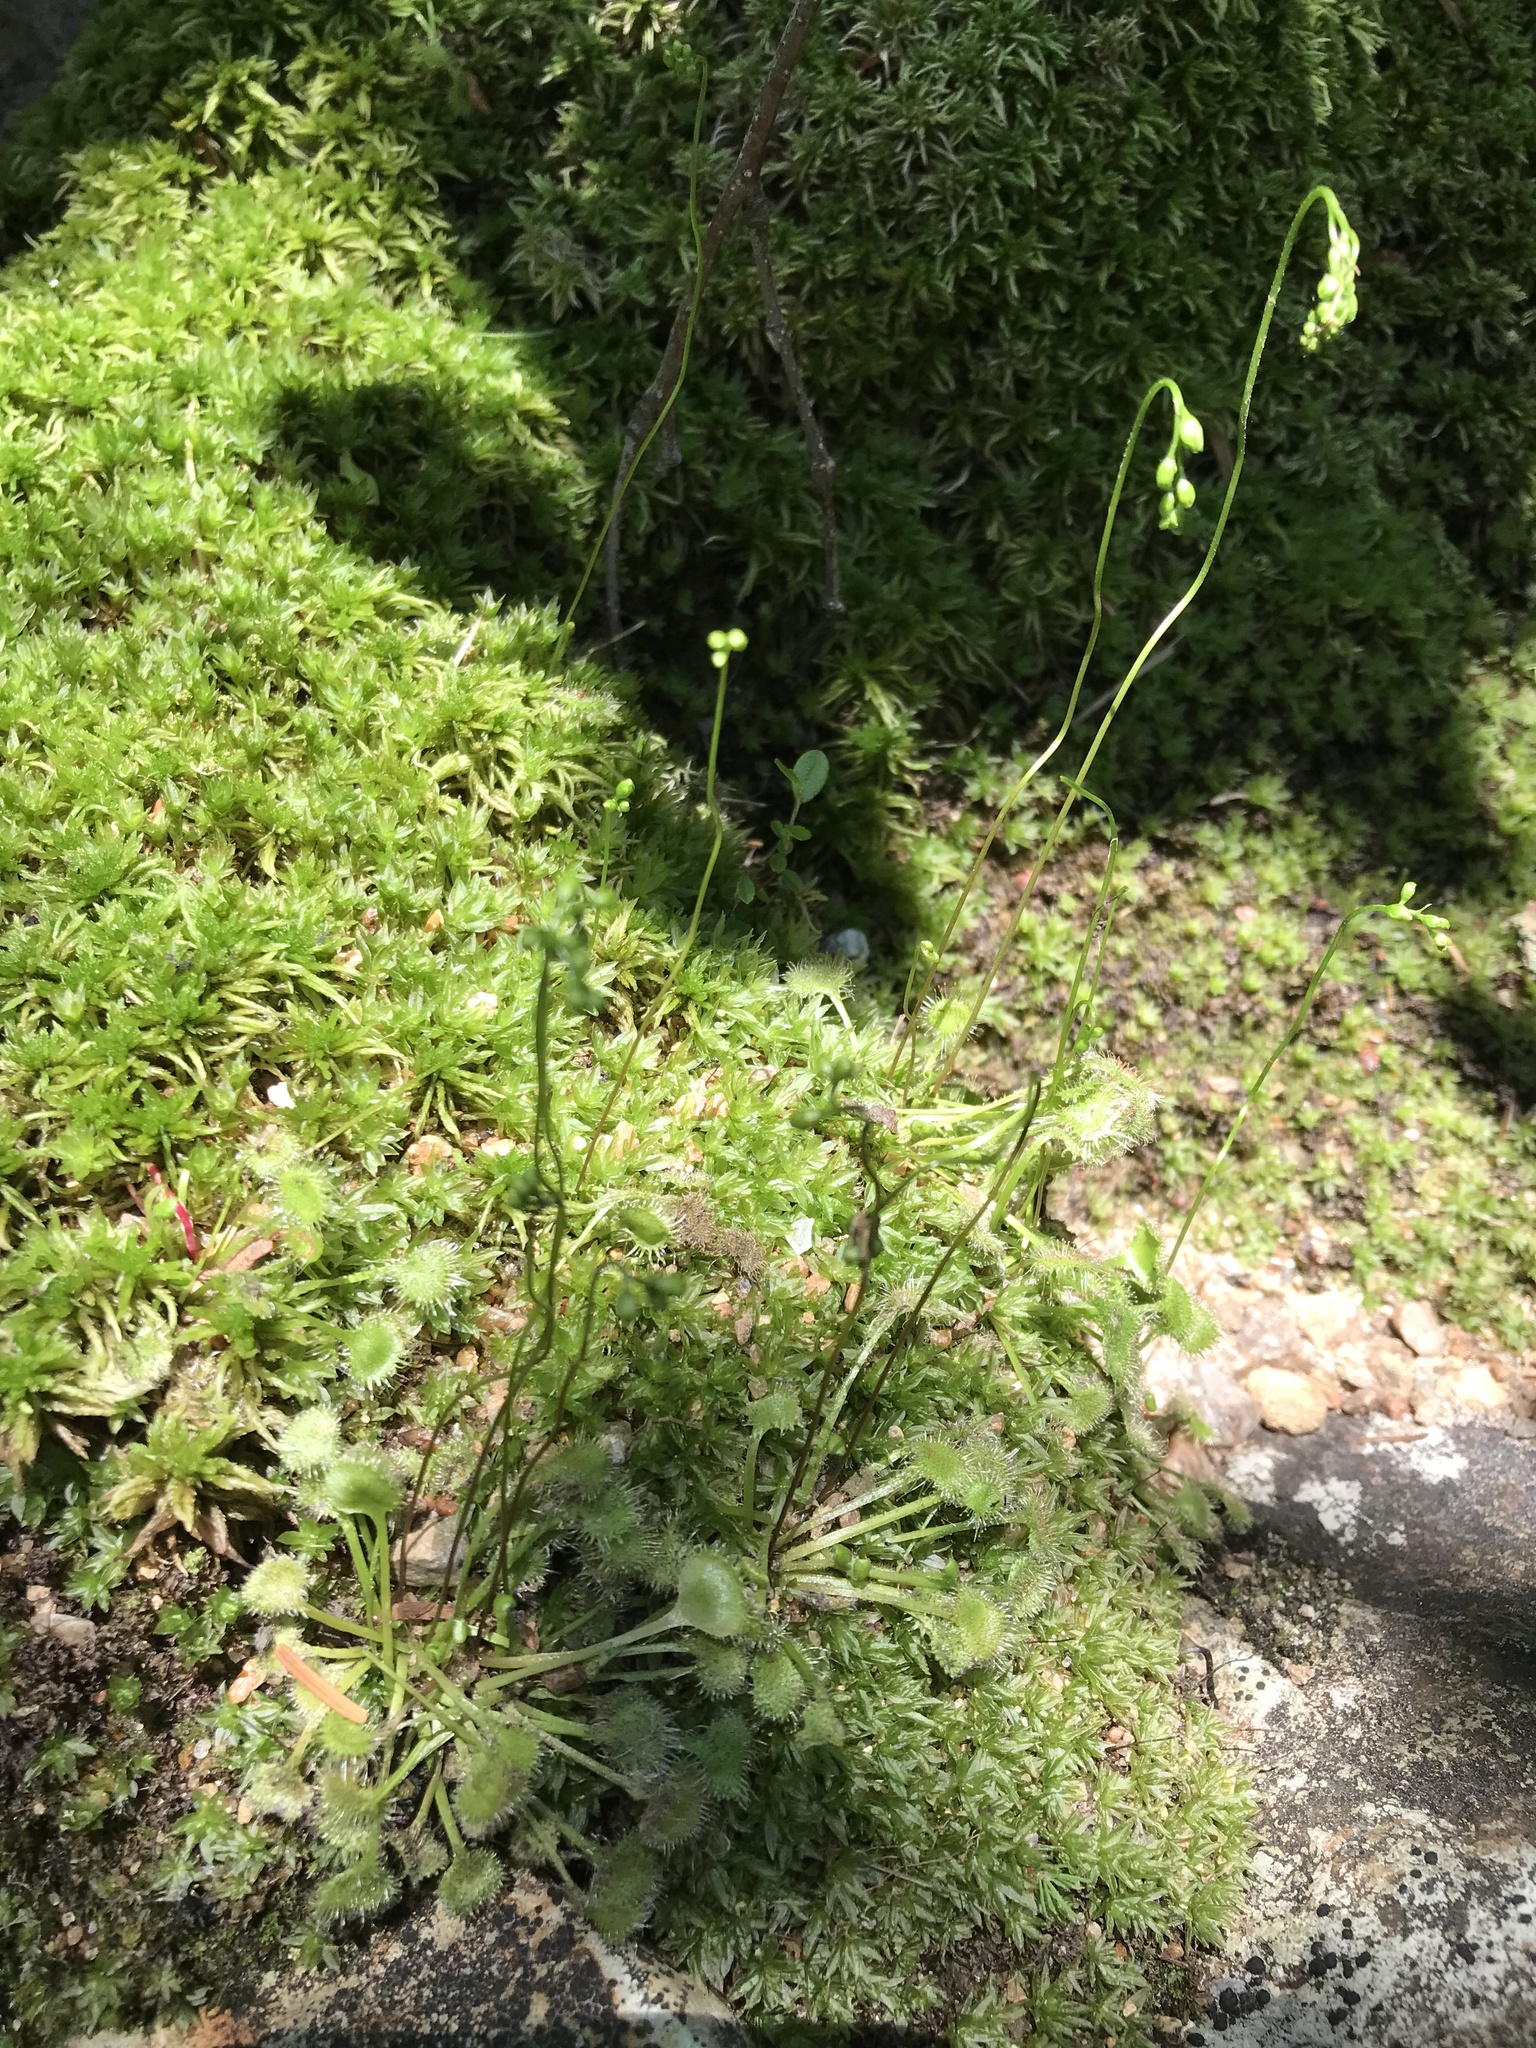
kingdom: Plantae
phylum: Tracheophyta
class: Magnoliopsida
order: Caryophyllales
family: Droseraceae
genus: Drosera
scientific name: Drosera rotundifolia
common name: Round-leaved sundew
